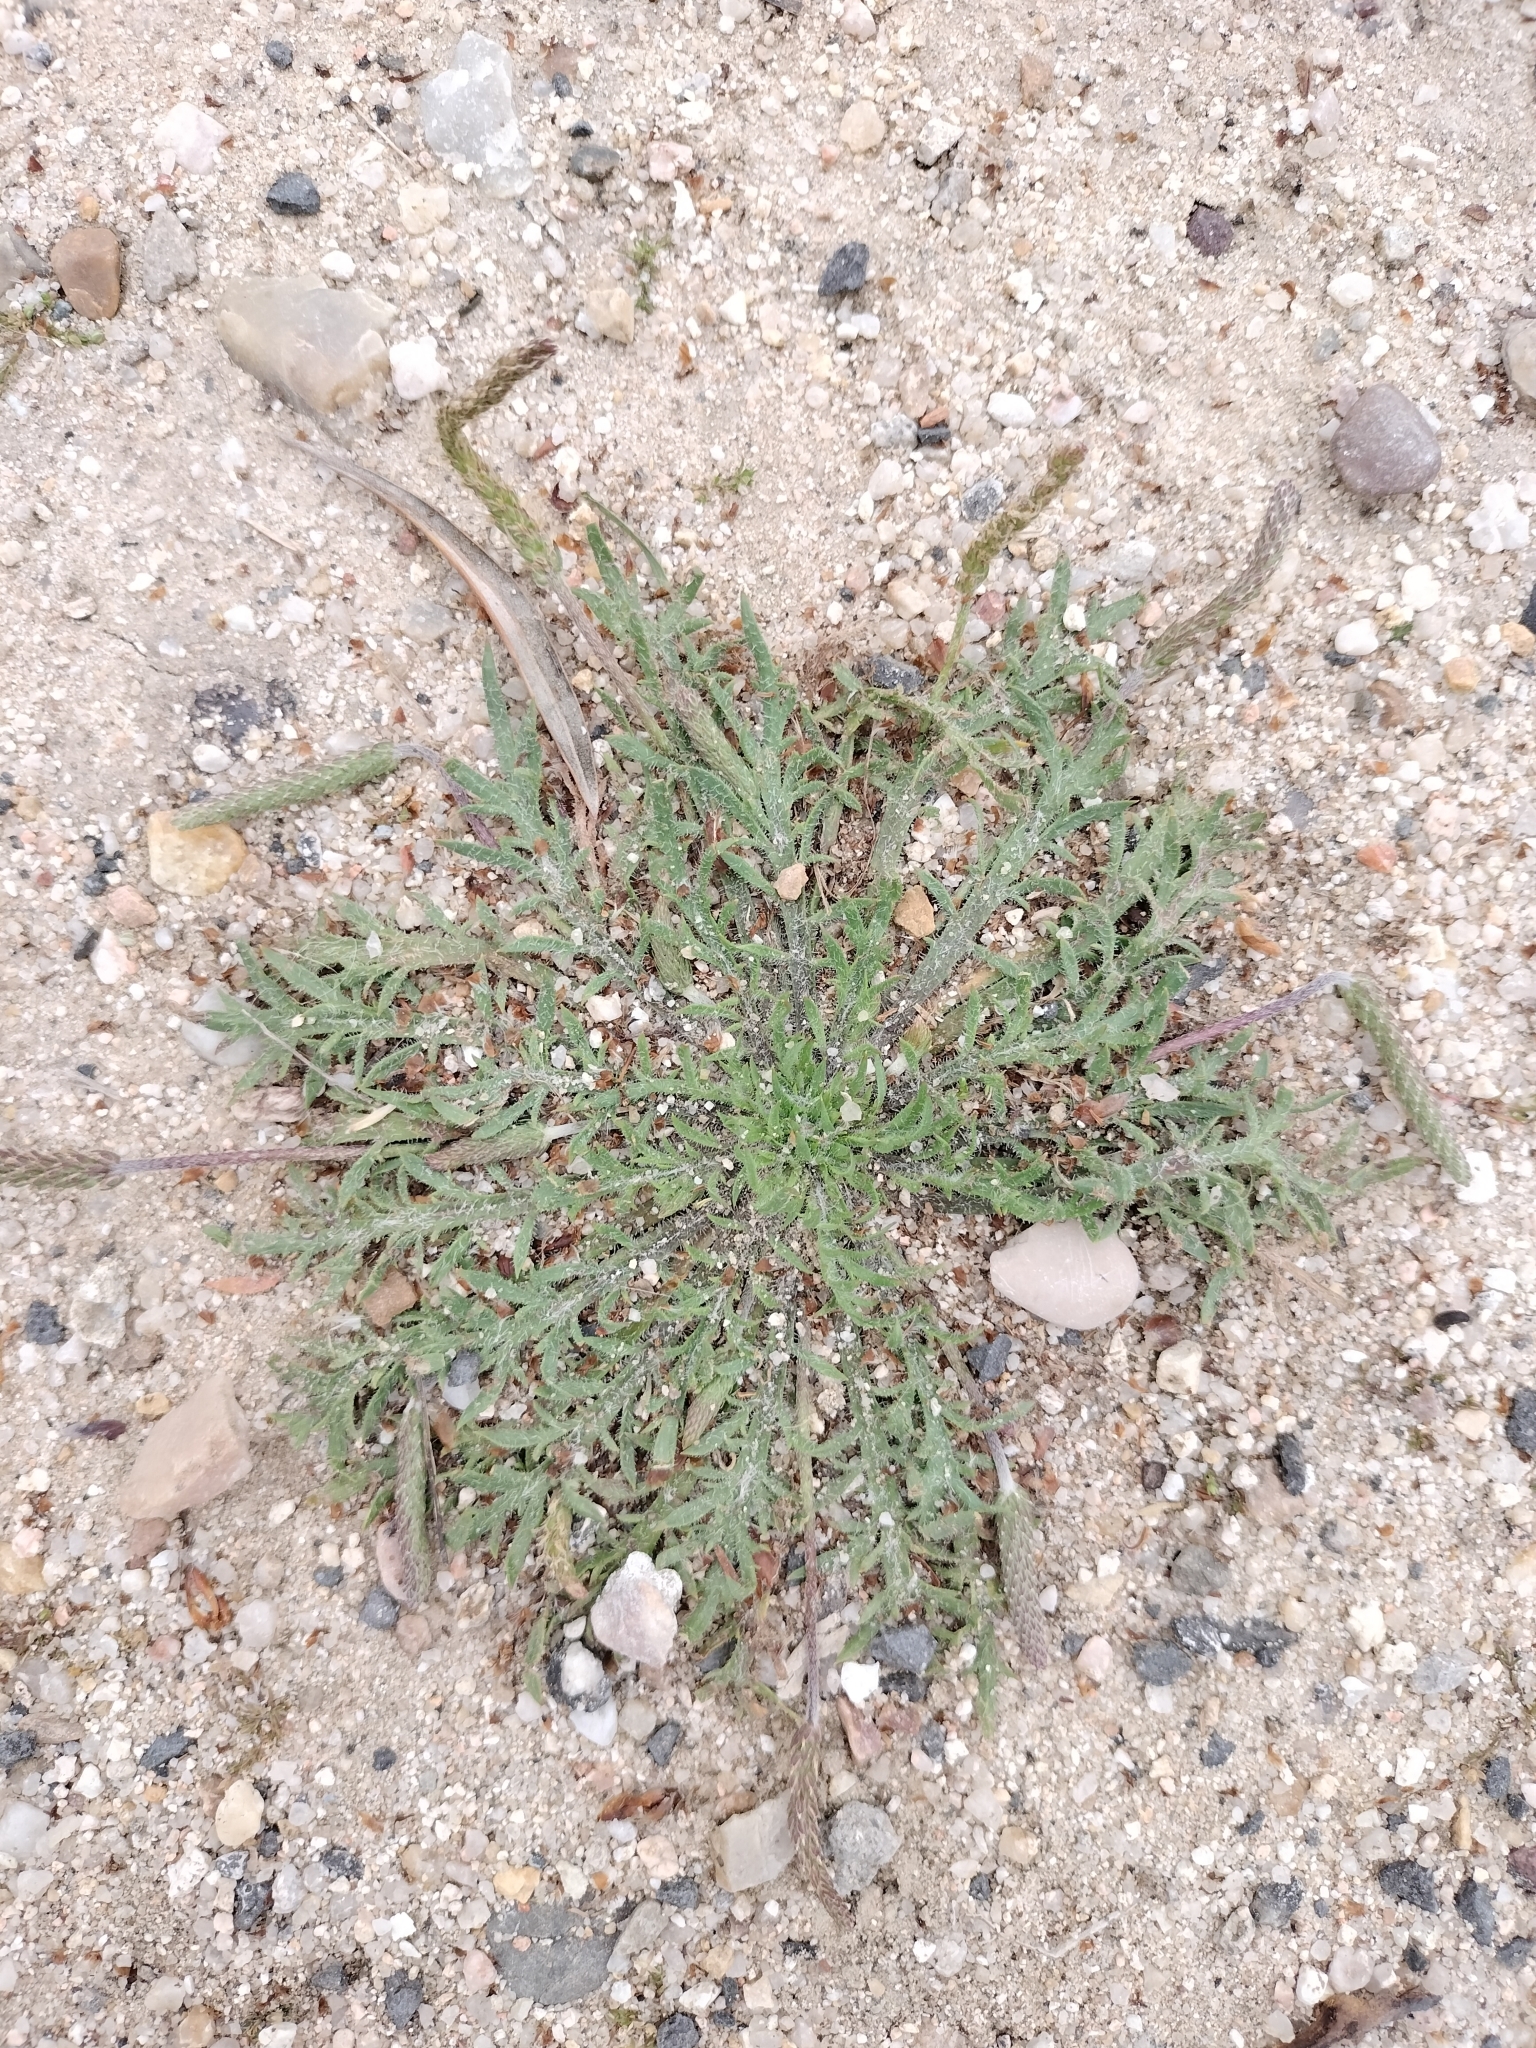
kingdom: Plantae
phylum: Tracheophyta
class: Magnoliopsida
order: Lamiales
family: Plantaginaceae
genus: Plantago
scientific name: Plantago coronopus
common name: Buck's-horn plantain
